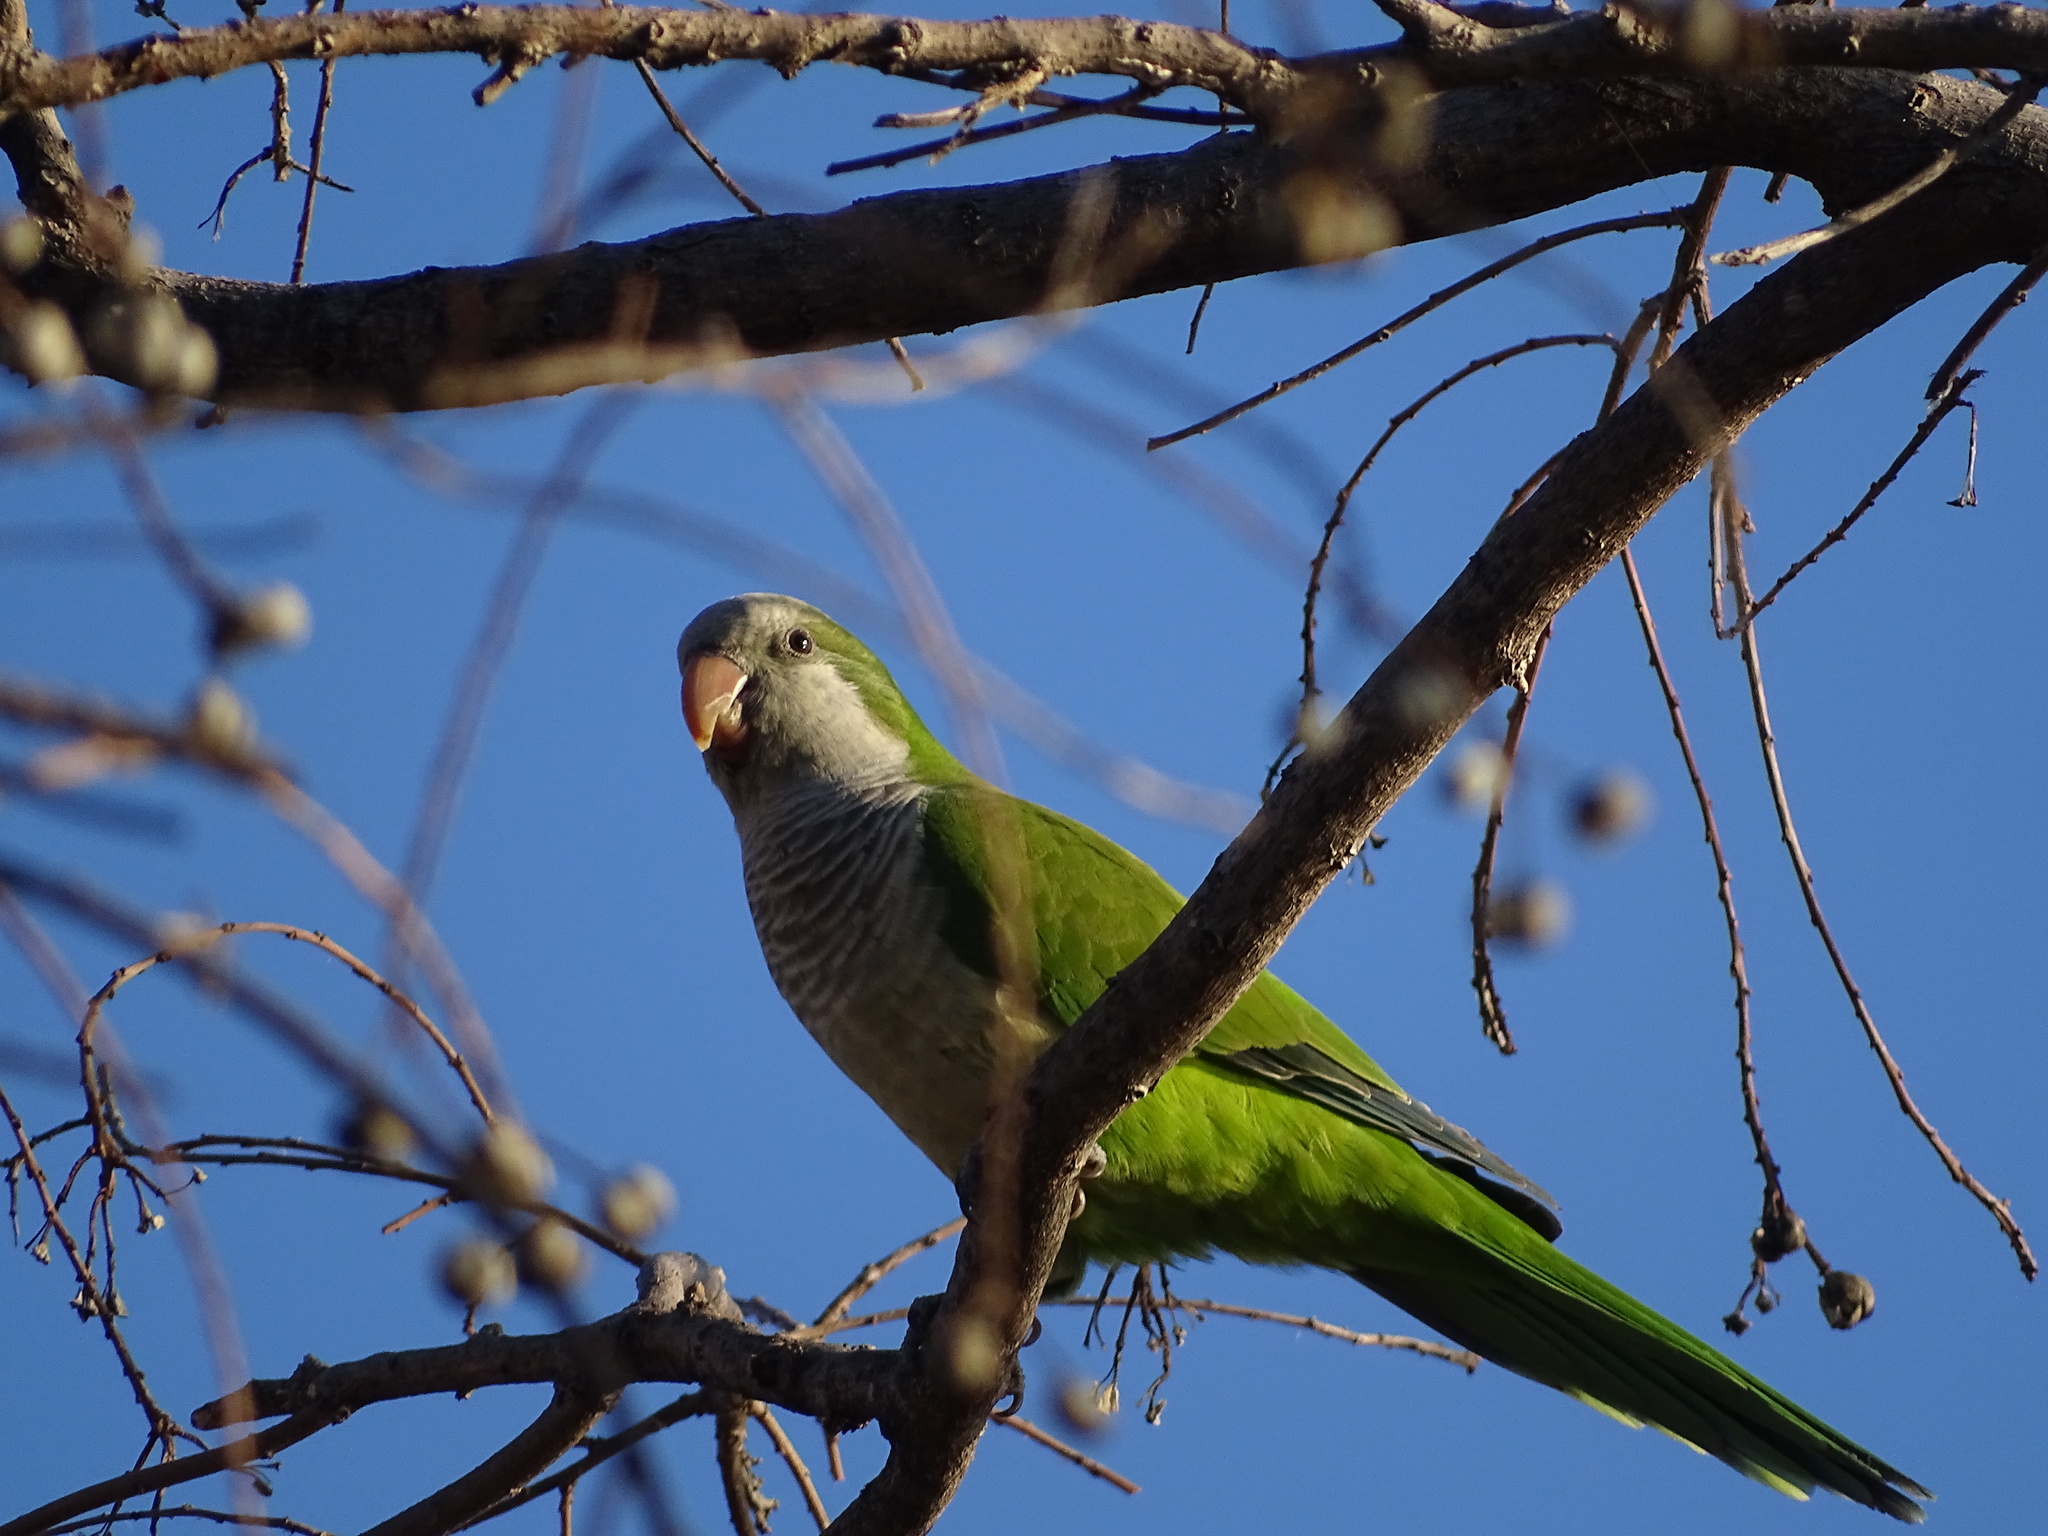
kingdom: Animalia
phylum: Chordata
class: Aves
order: Psittaciformes
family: Psittacidae
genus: Myiopsitta
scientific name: Myiopsitta monachus
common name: Monk parakeet
